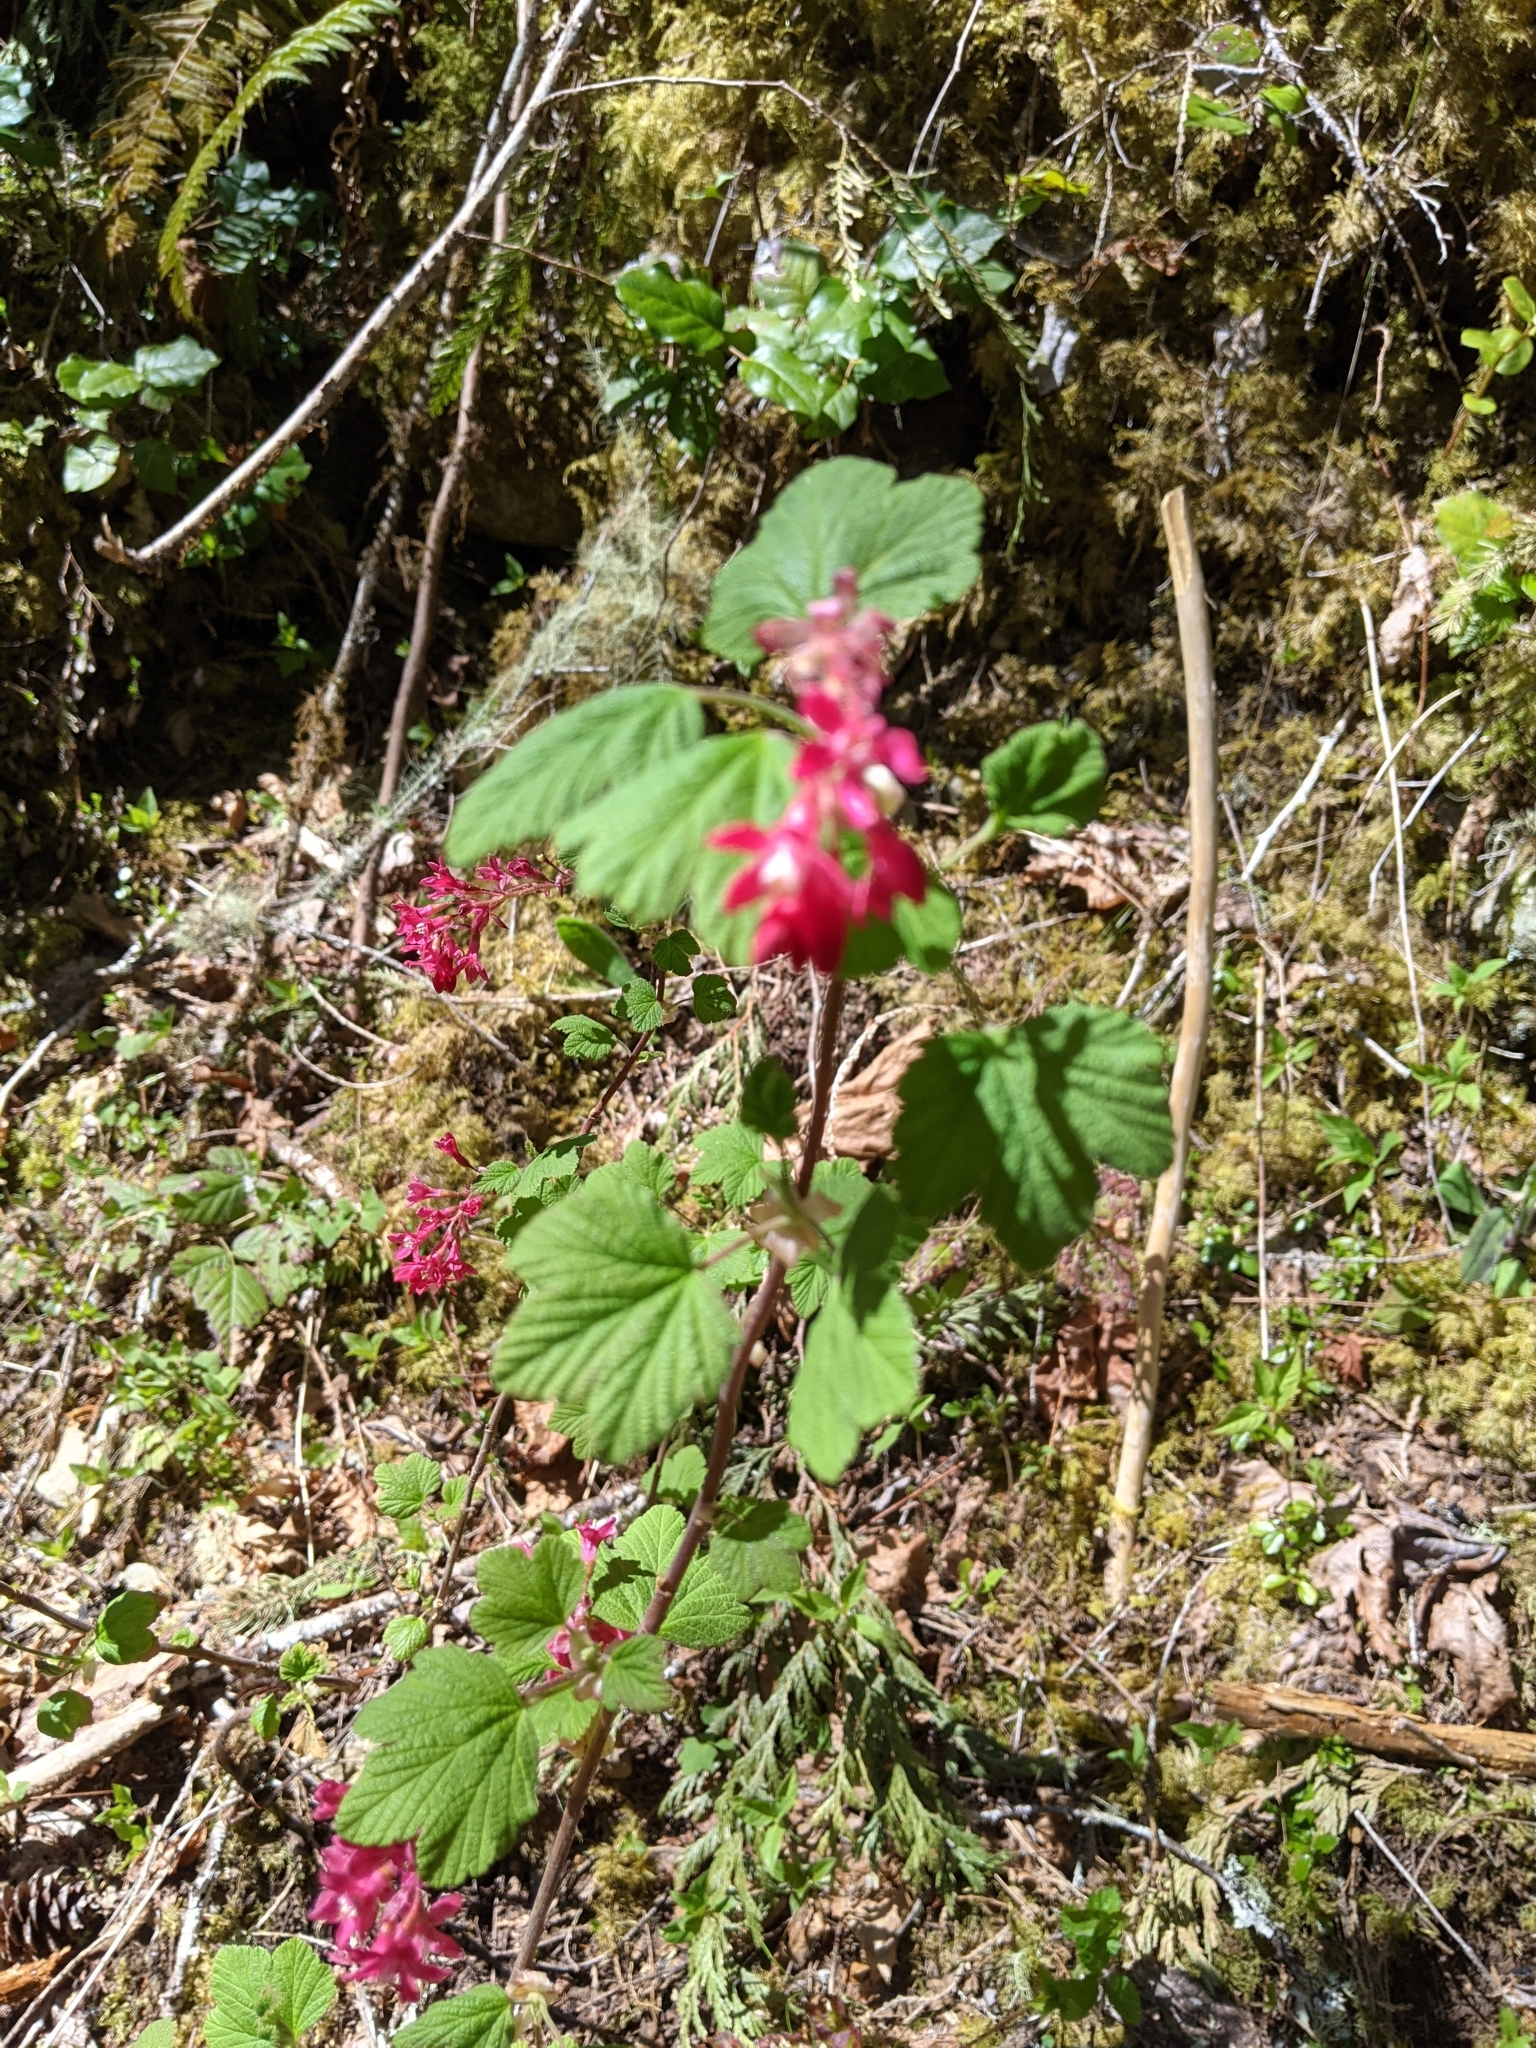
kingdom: Plantae
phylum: Tracheophyta
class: Magnoliopsida
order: Saxifragales
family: Grossulariaceae
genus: Ribes
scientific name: Ribes sanguineum
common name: Flowering currant
